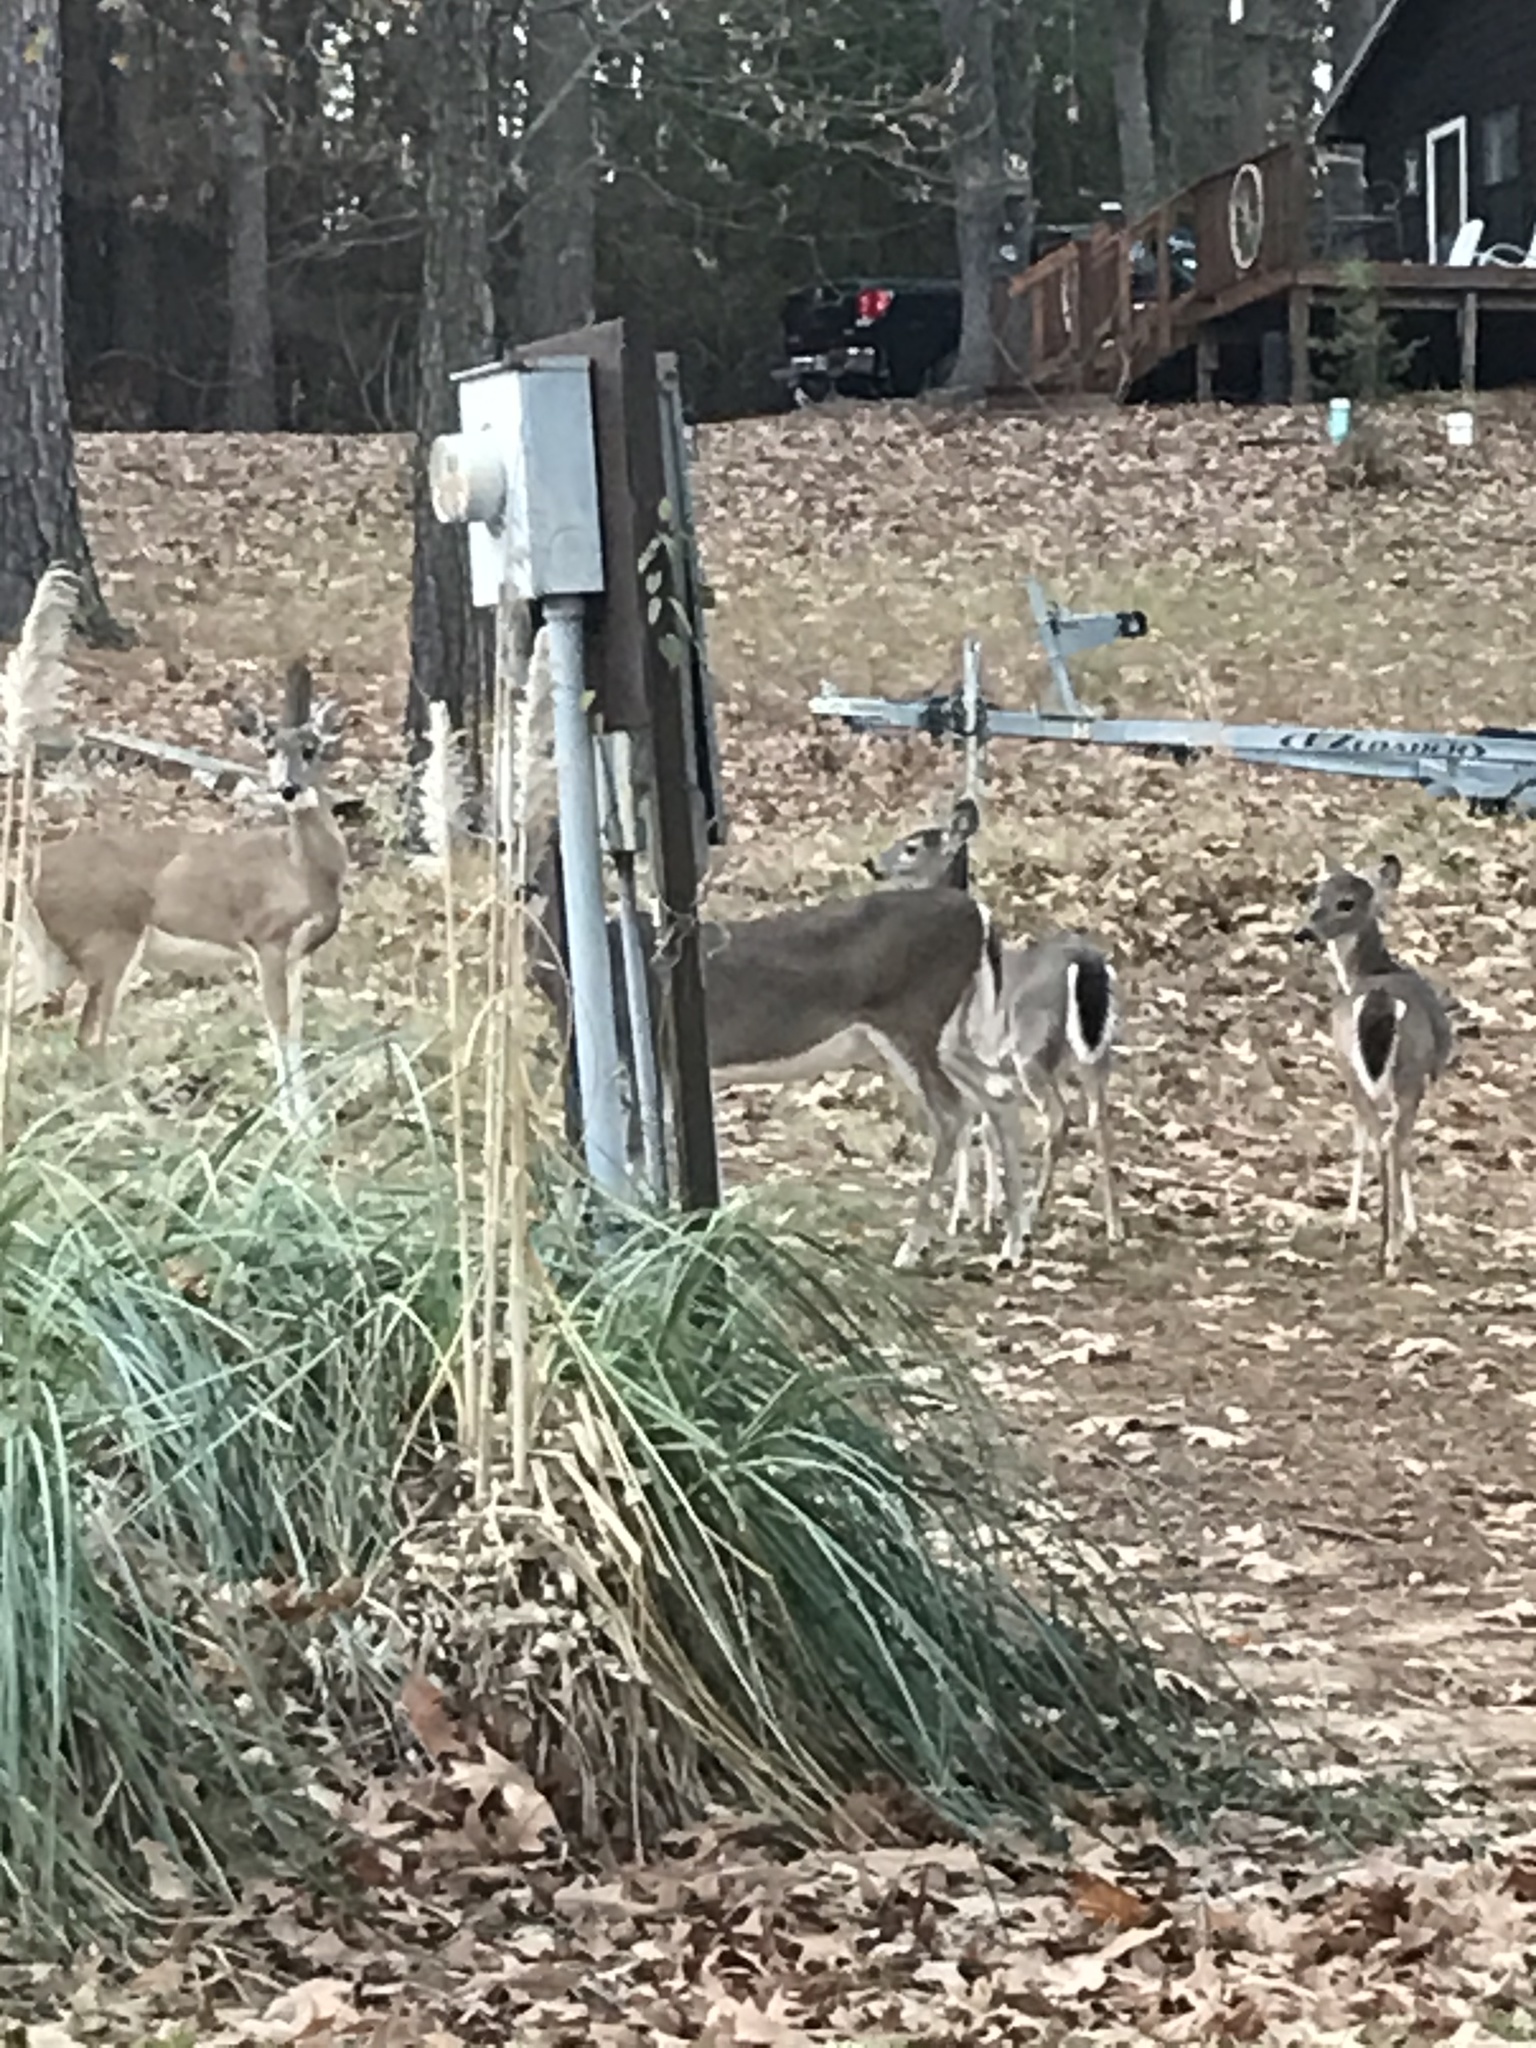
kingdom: Animalia
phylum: Chordata
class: Mammalia
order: Artiodactyla
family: Cervidae
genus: Odocoileus
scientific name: Odocoileus virginianus
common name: White-tailed deer
